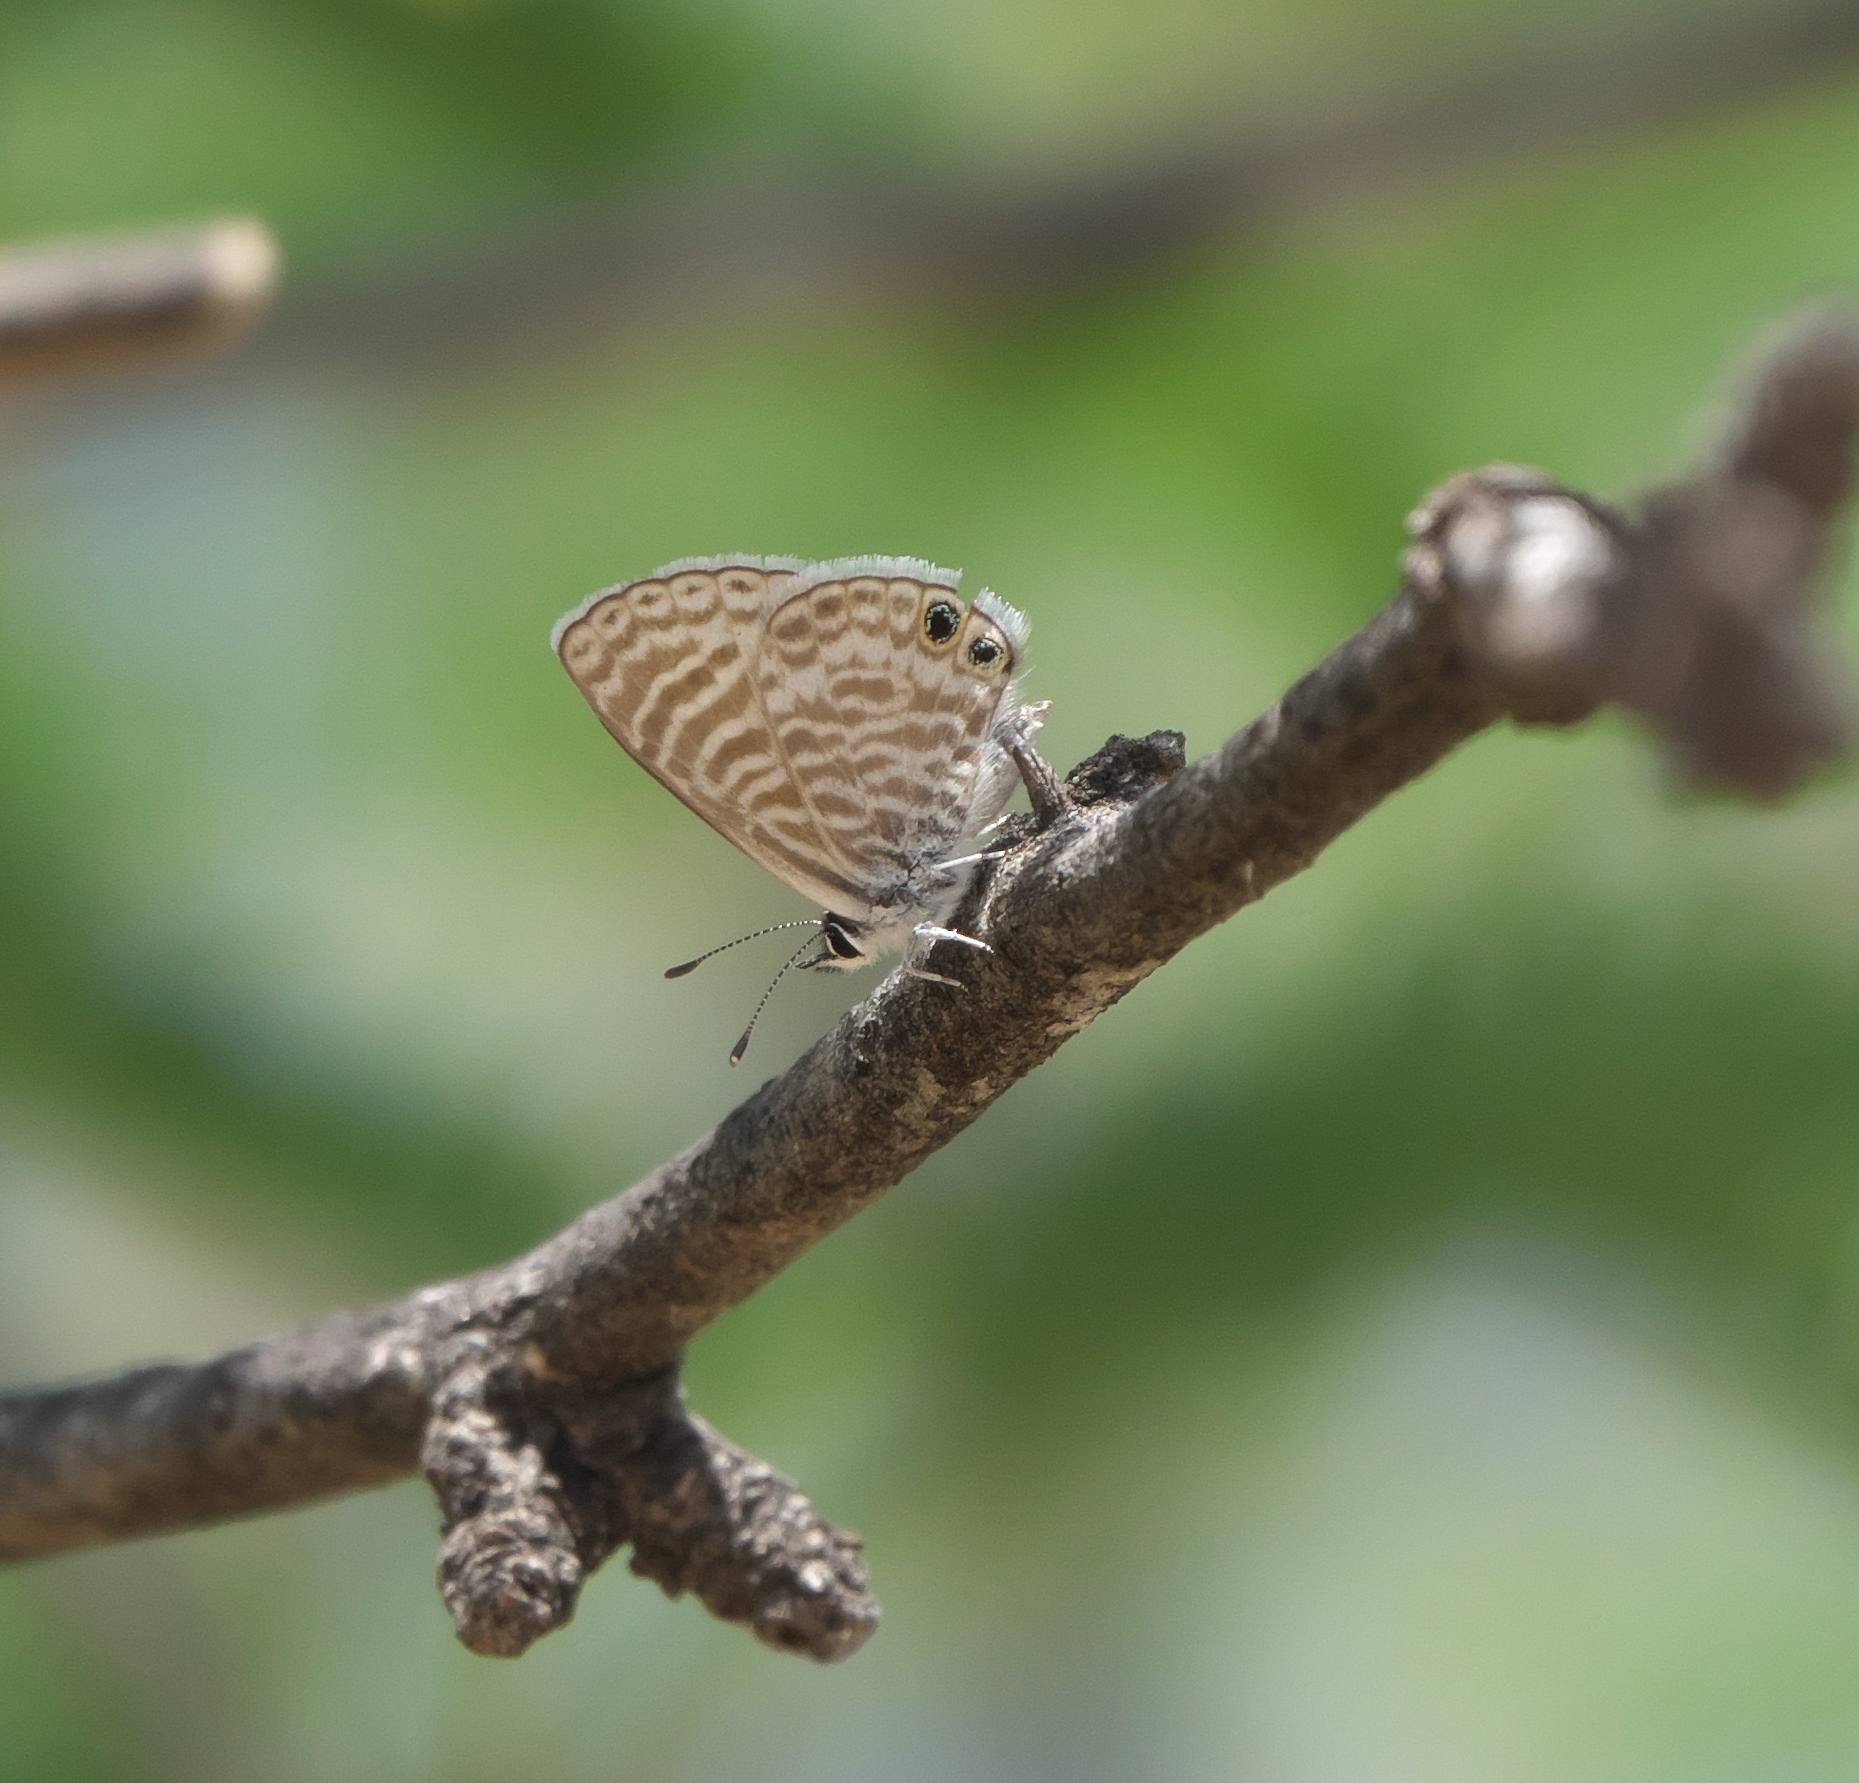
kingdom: Animalia
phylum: Arthropoda
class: Insecta
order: Lepidoptera
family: Lycaenidae
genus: Leptotes
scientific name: Leptotes marina
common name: Marine blue
